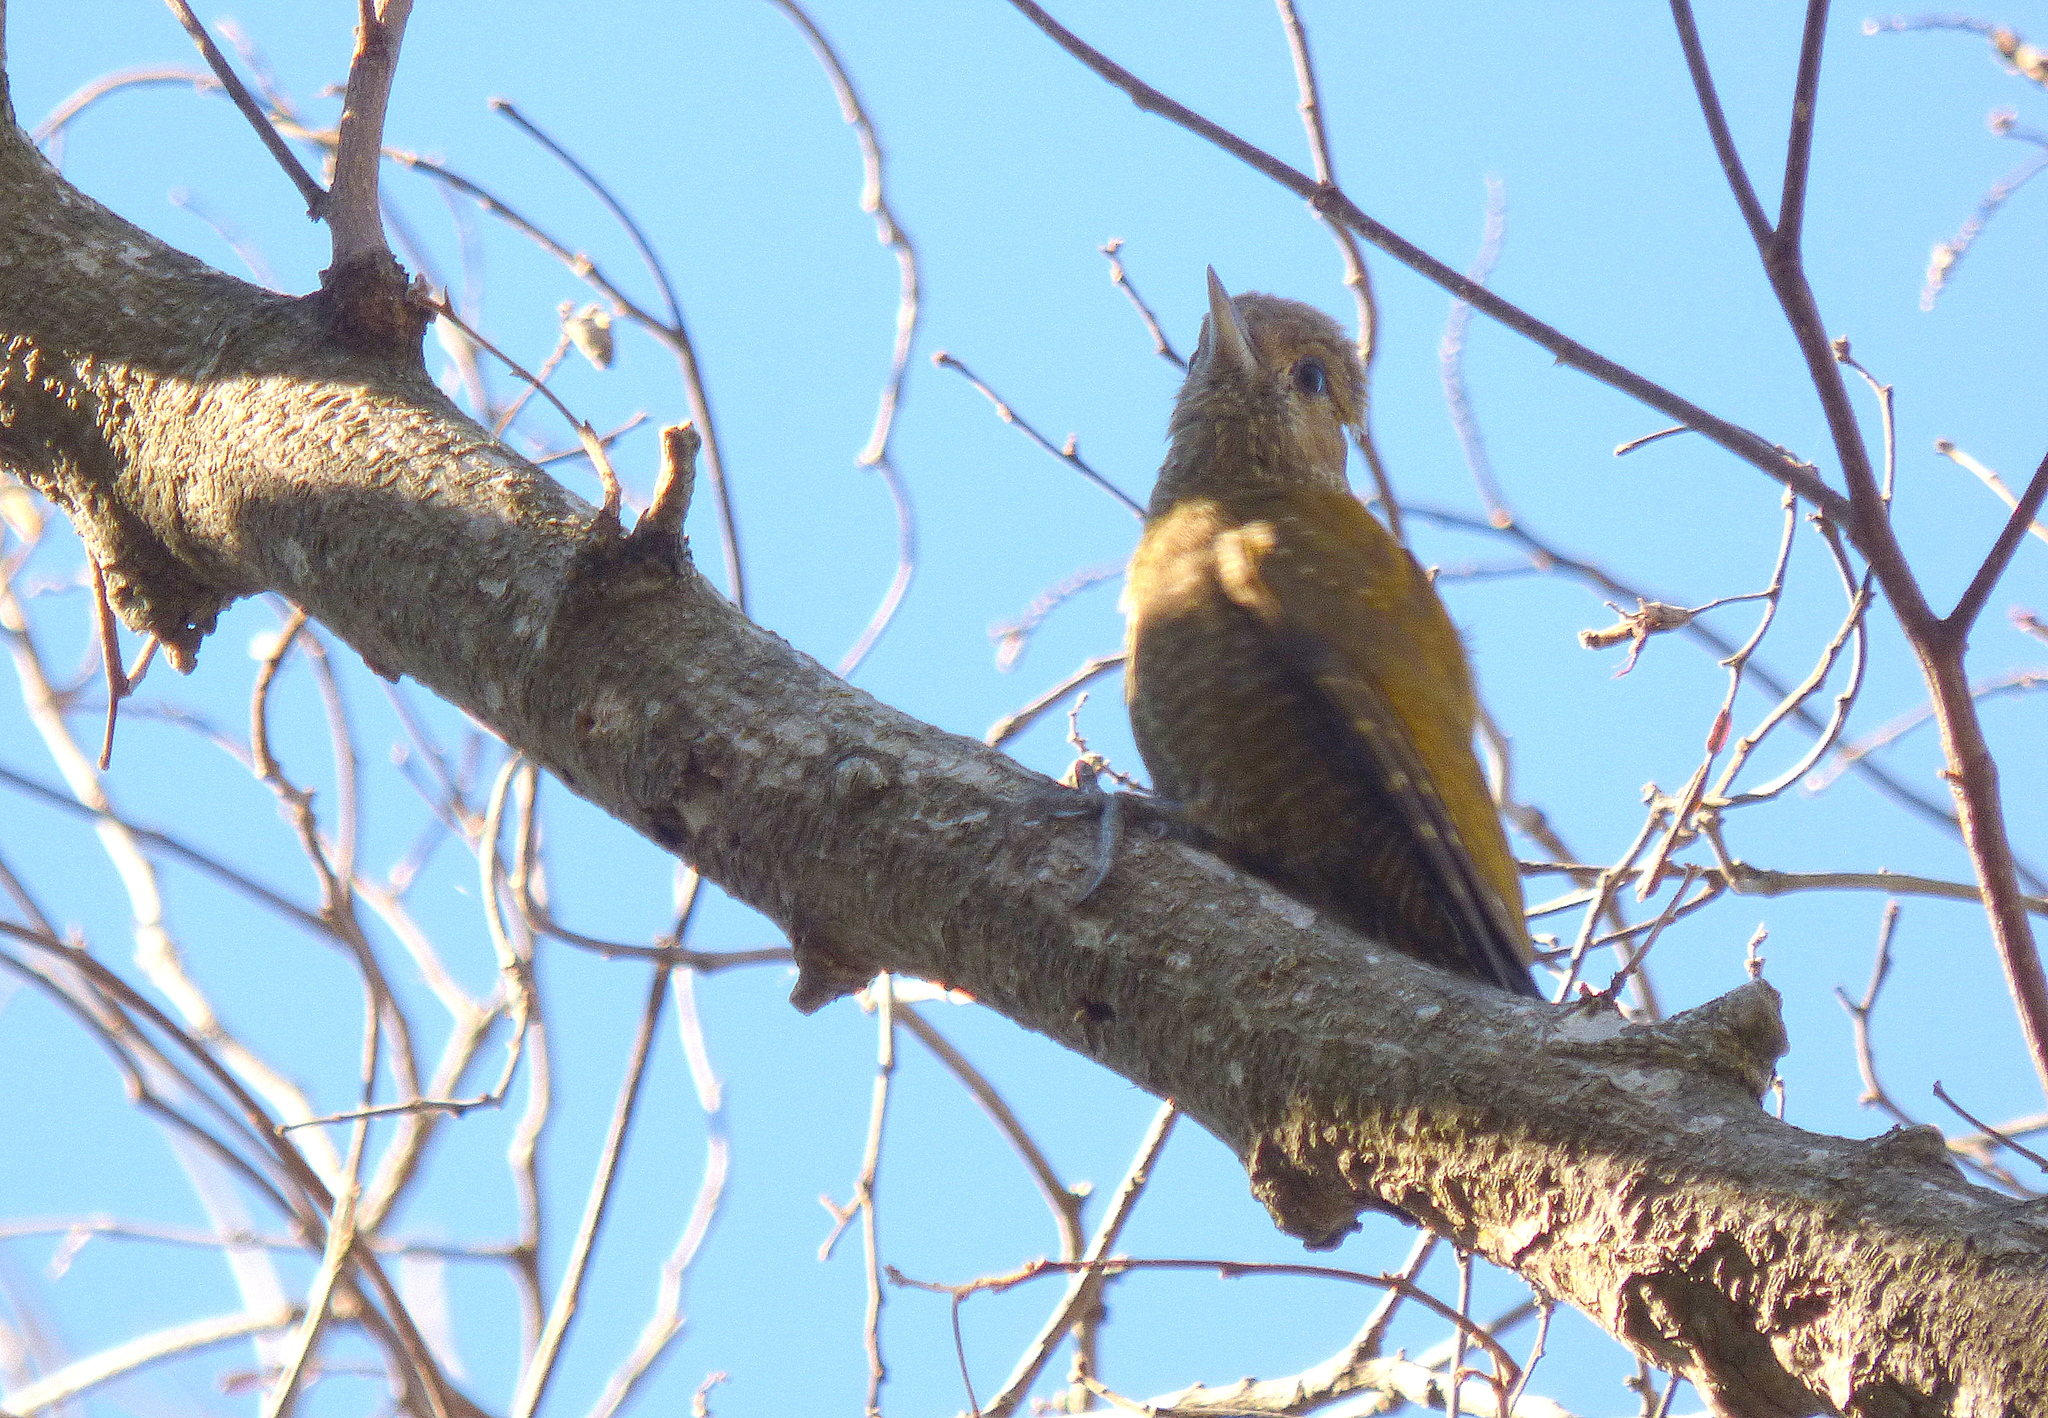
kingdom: Animalia
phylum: Chordata
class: Aves
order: Piciformes
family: Picidae
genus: Veniliornis
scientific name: Veniliornis passerinus
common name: Little woodpecker
